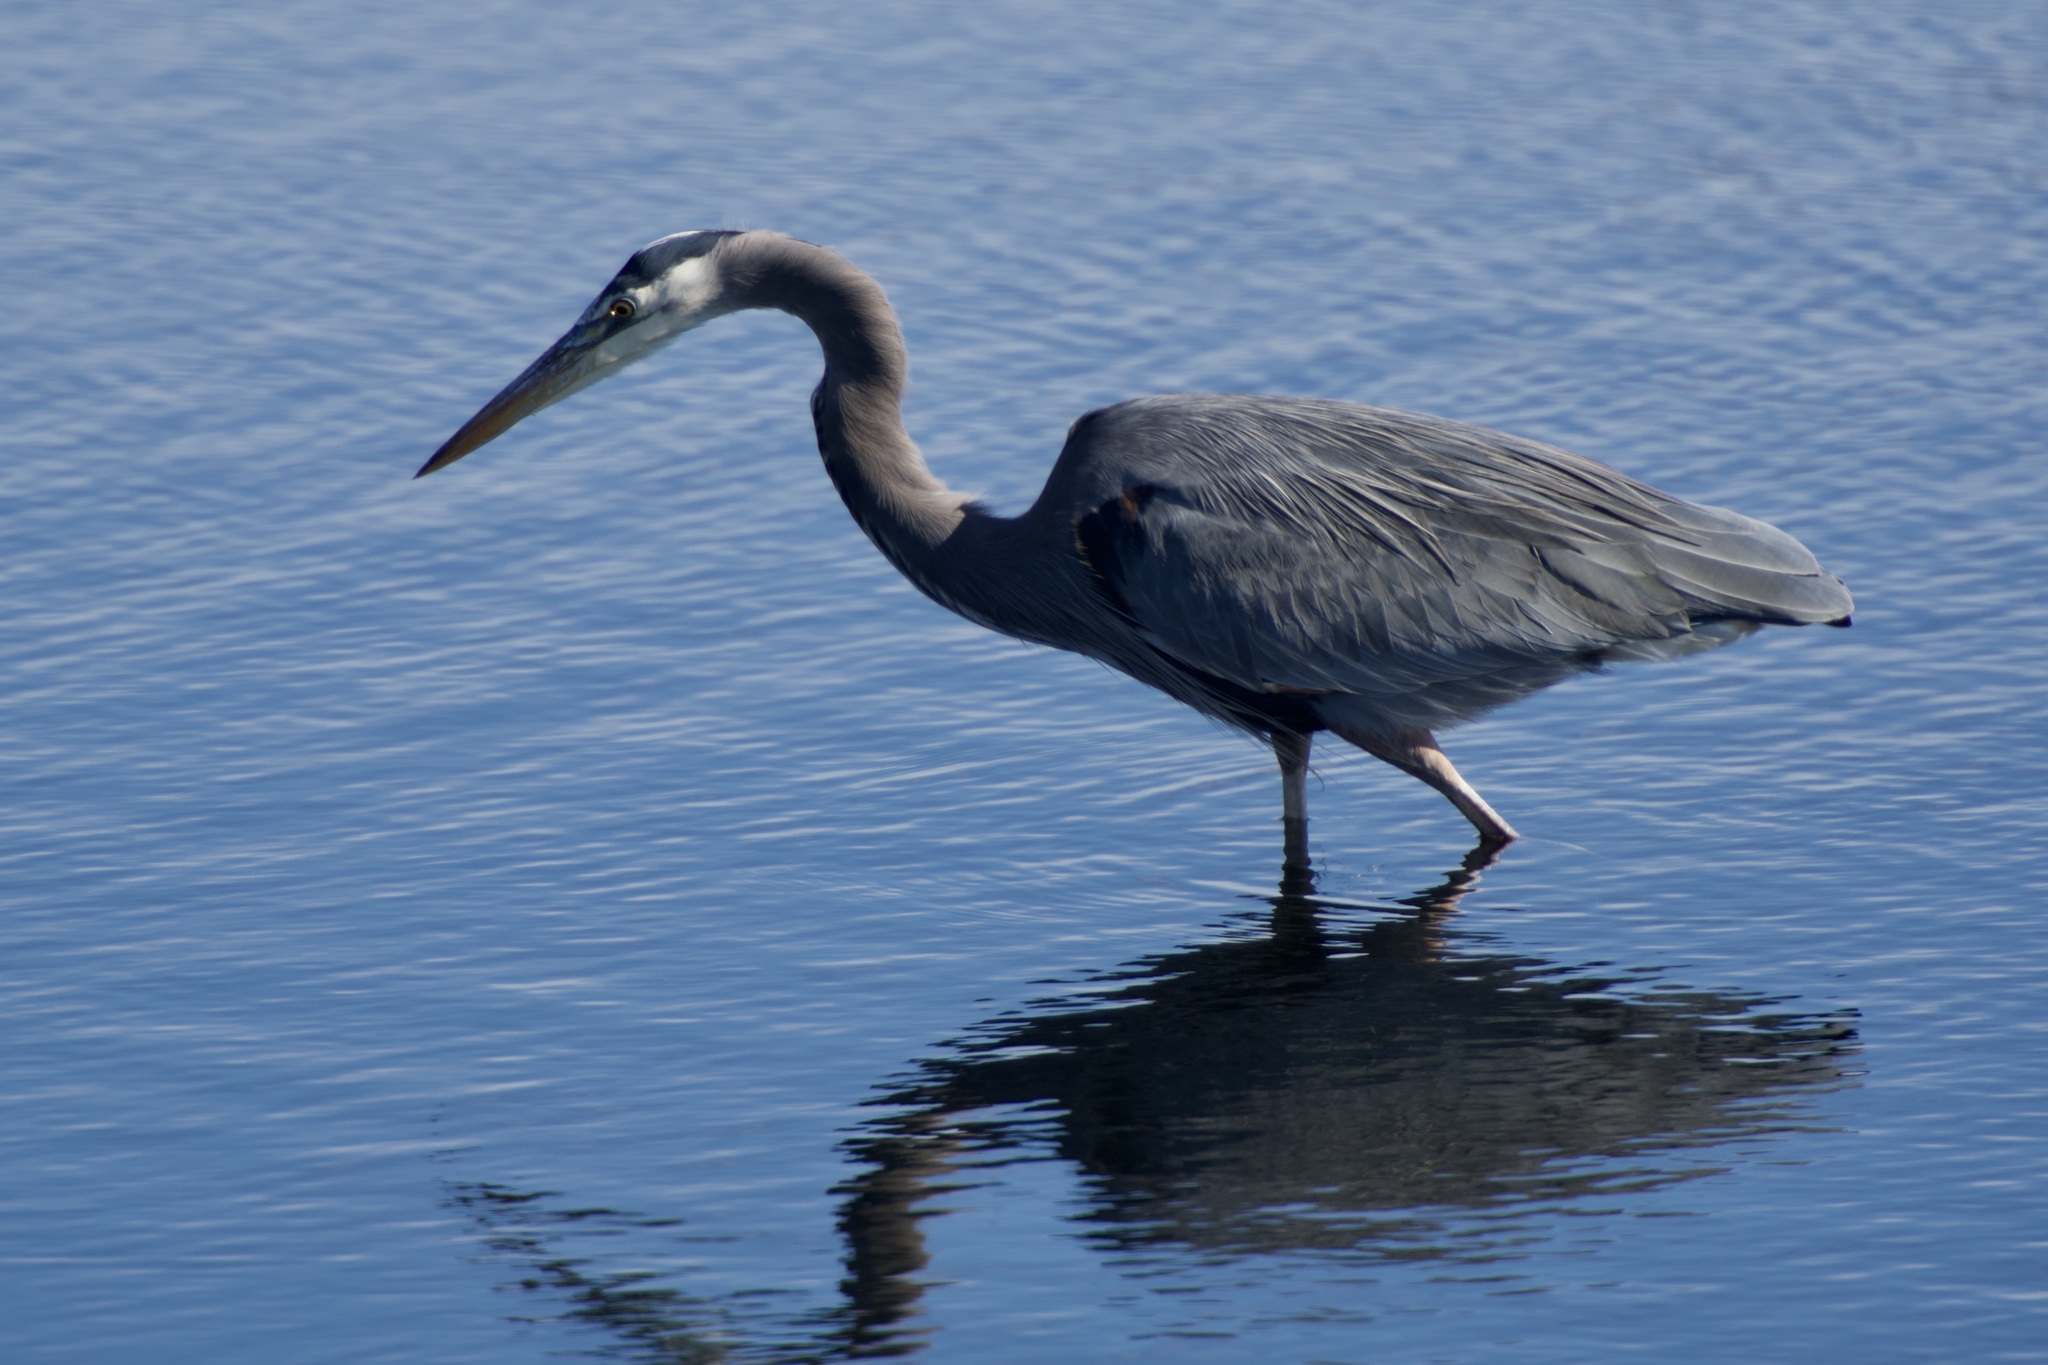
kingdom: Animalia
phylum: Chordata
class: Aves
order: Pelecaniformes
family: Ardeidae
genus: Ardea
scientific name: Ardea herodias
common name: Great blue heron
